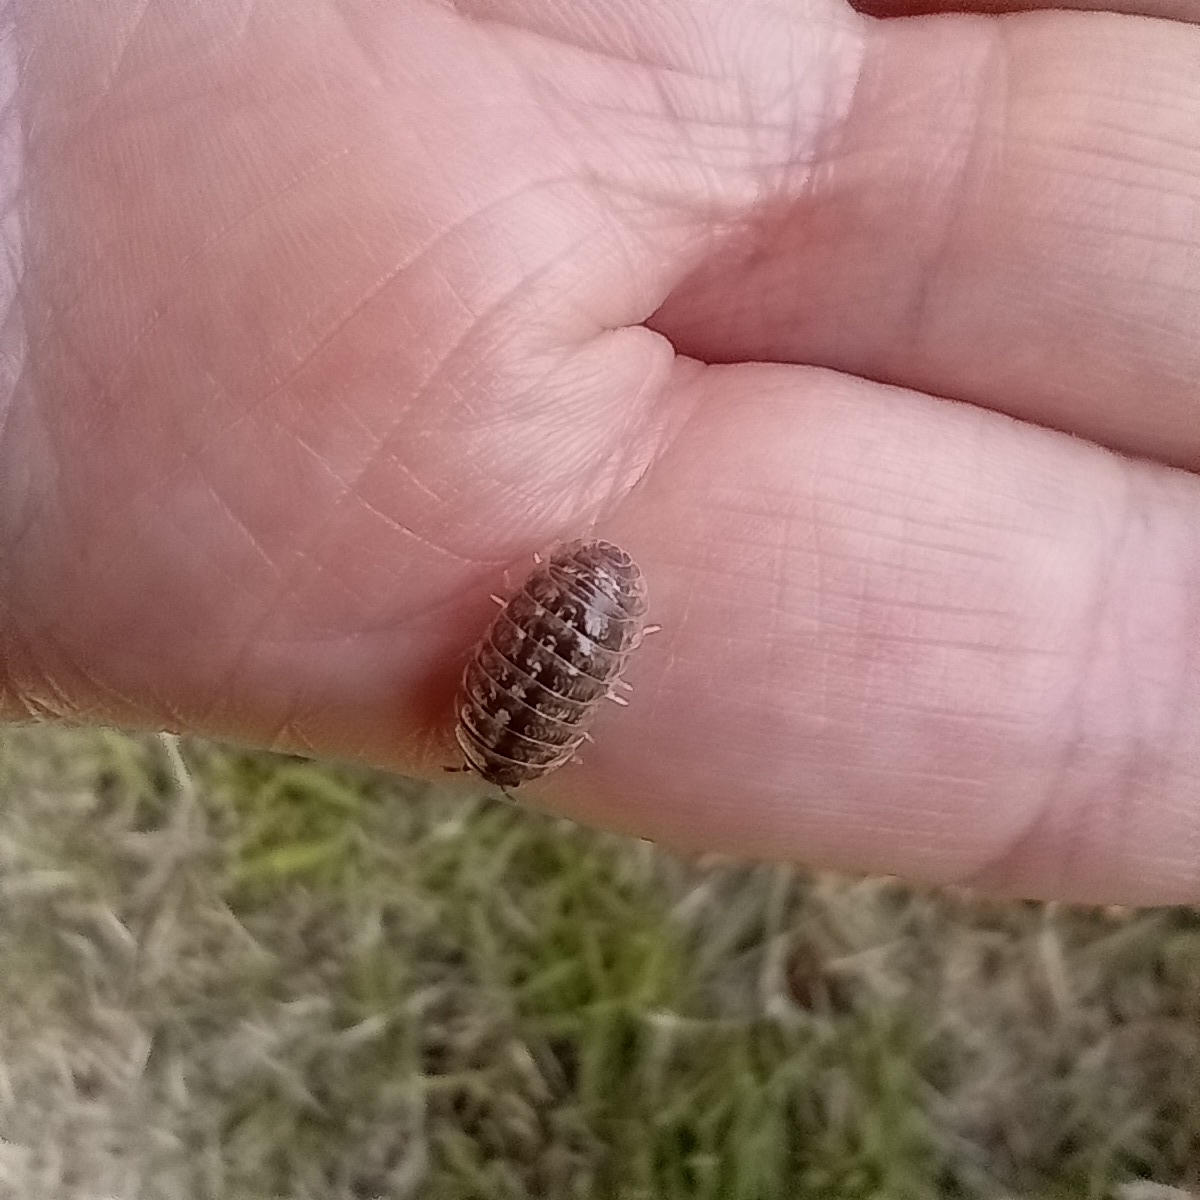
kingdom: Animalia
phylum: Arthropoda
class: Malacostraca
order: Isopoda
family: Armadillidiidae
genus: Armadillidium
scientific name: Armadillidium vulgare
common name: Common pill woodlouse
